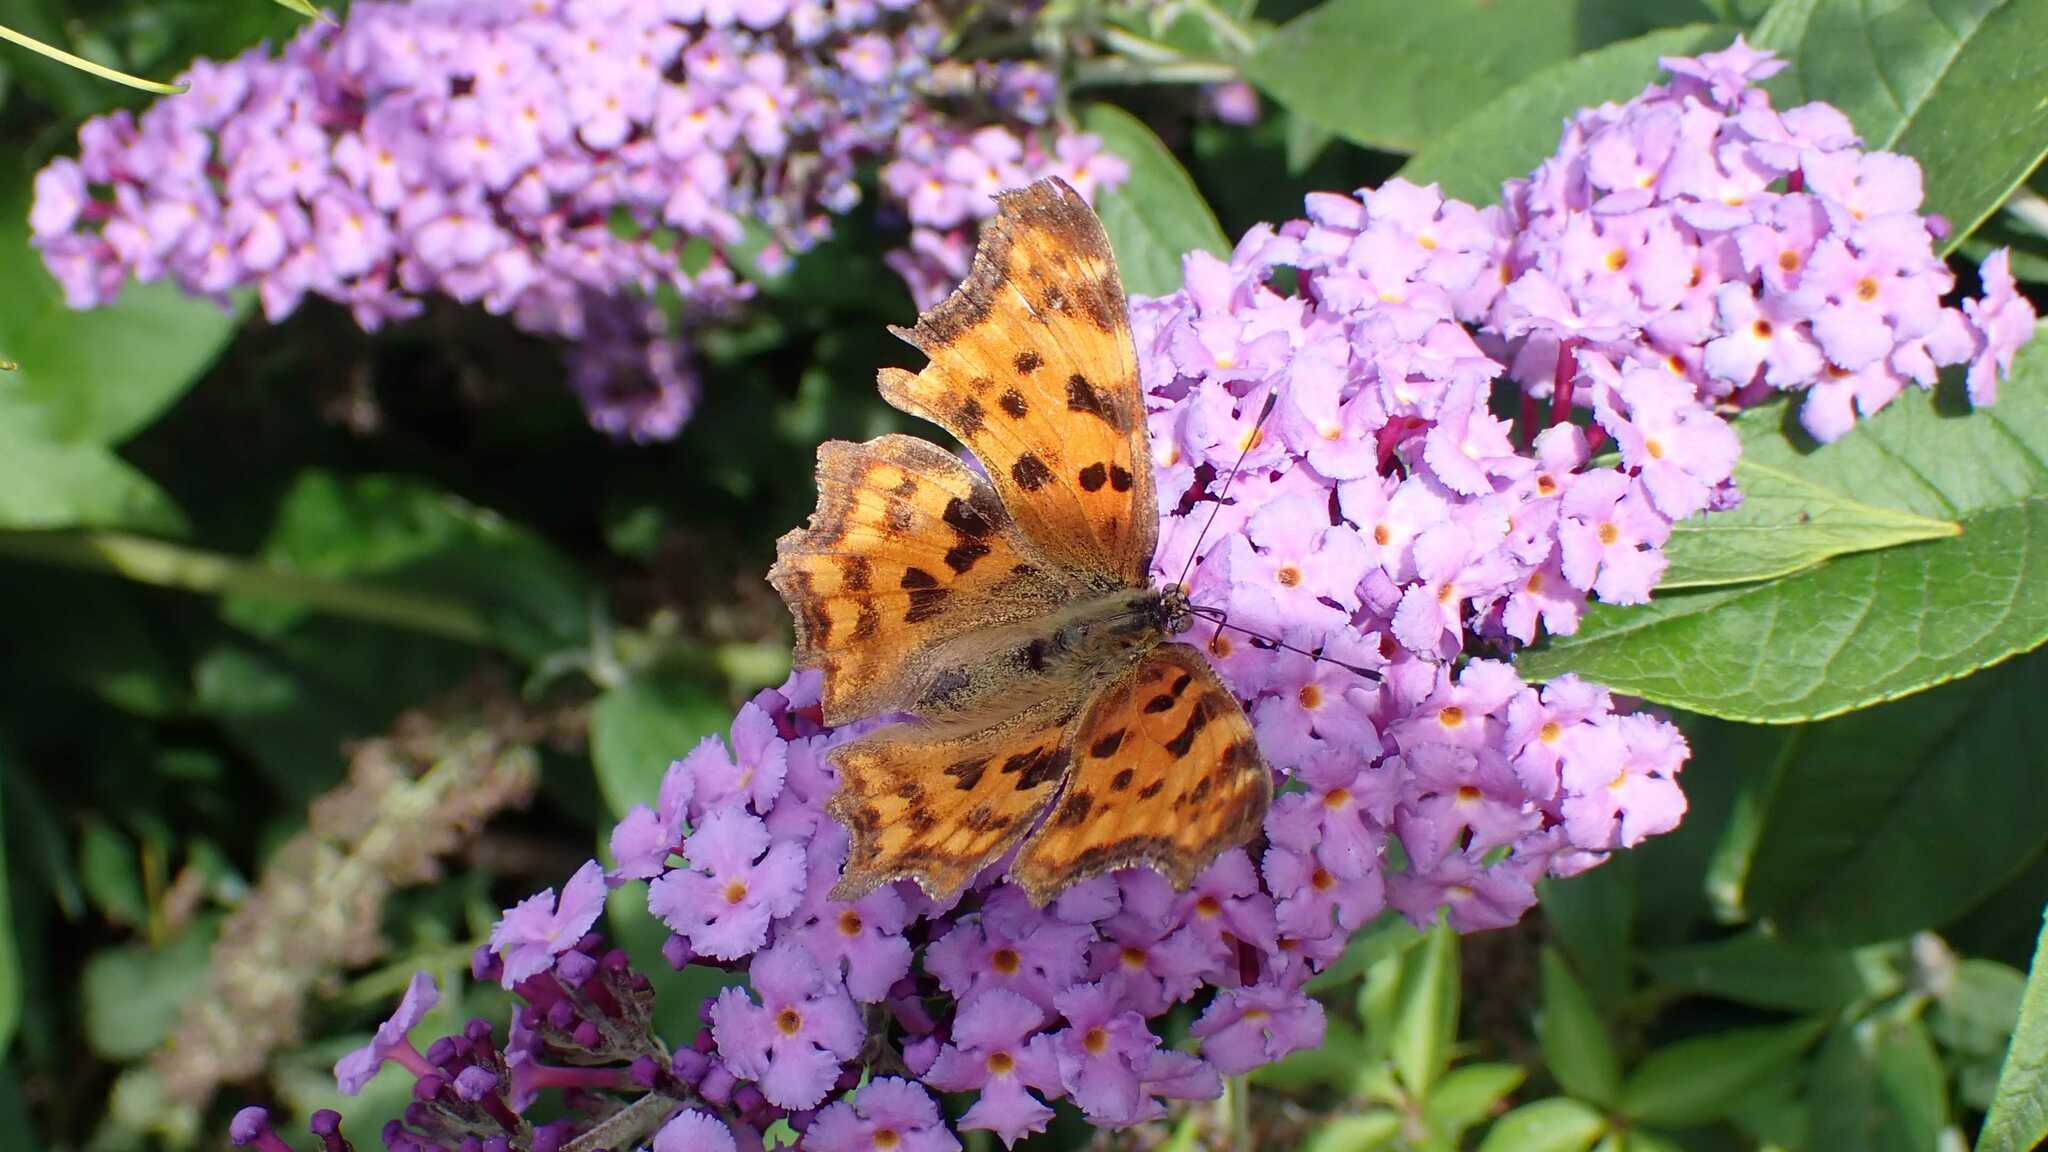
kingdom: Animalia
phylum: Arthropoda
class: Insecta
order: Lepidoptera
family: Nymphalidae
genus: Polygonia
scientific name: Polygonia c-album
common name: Comma
